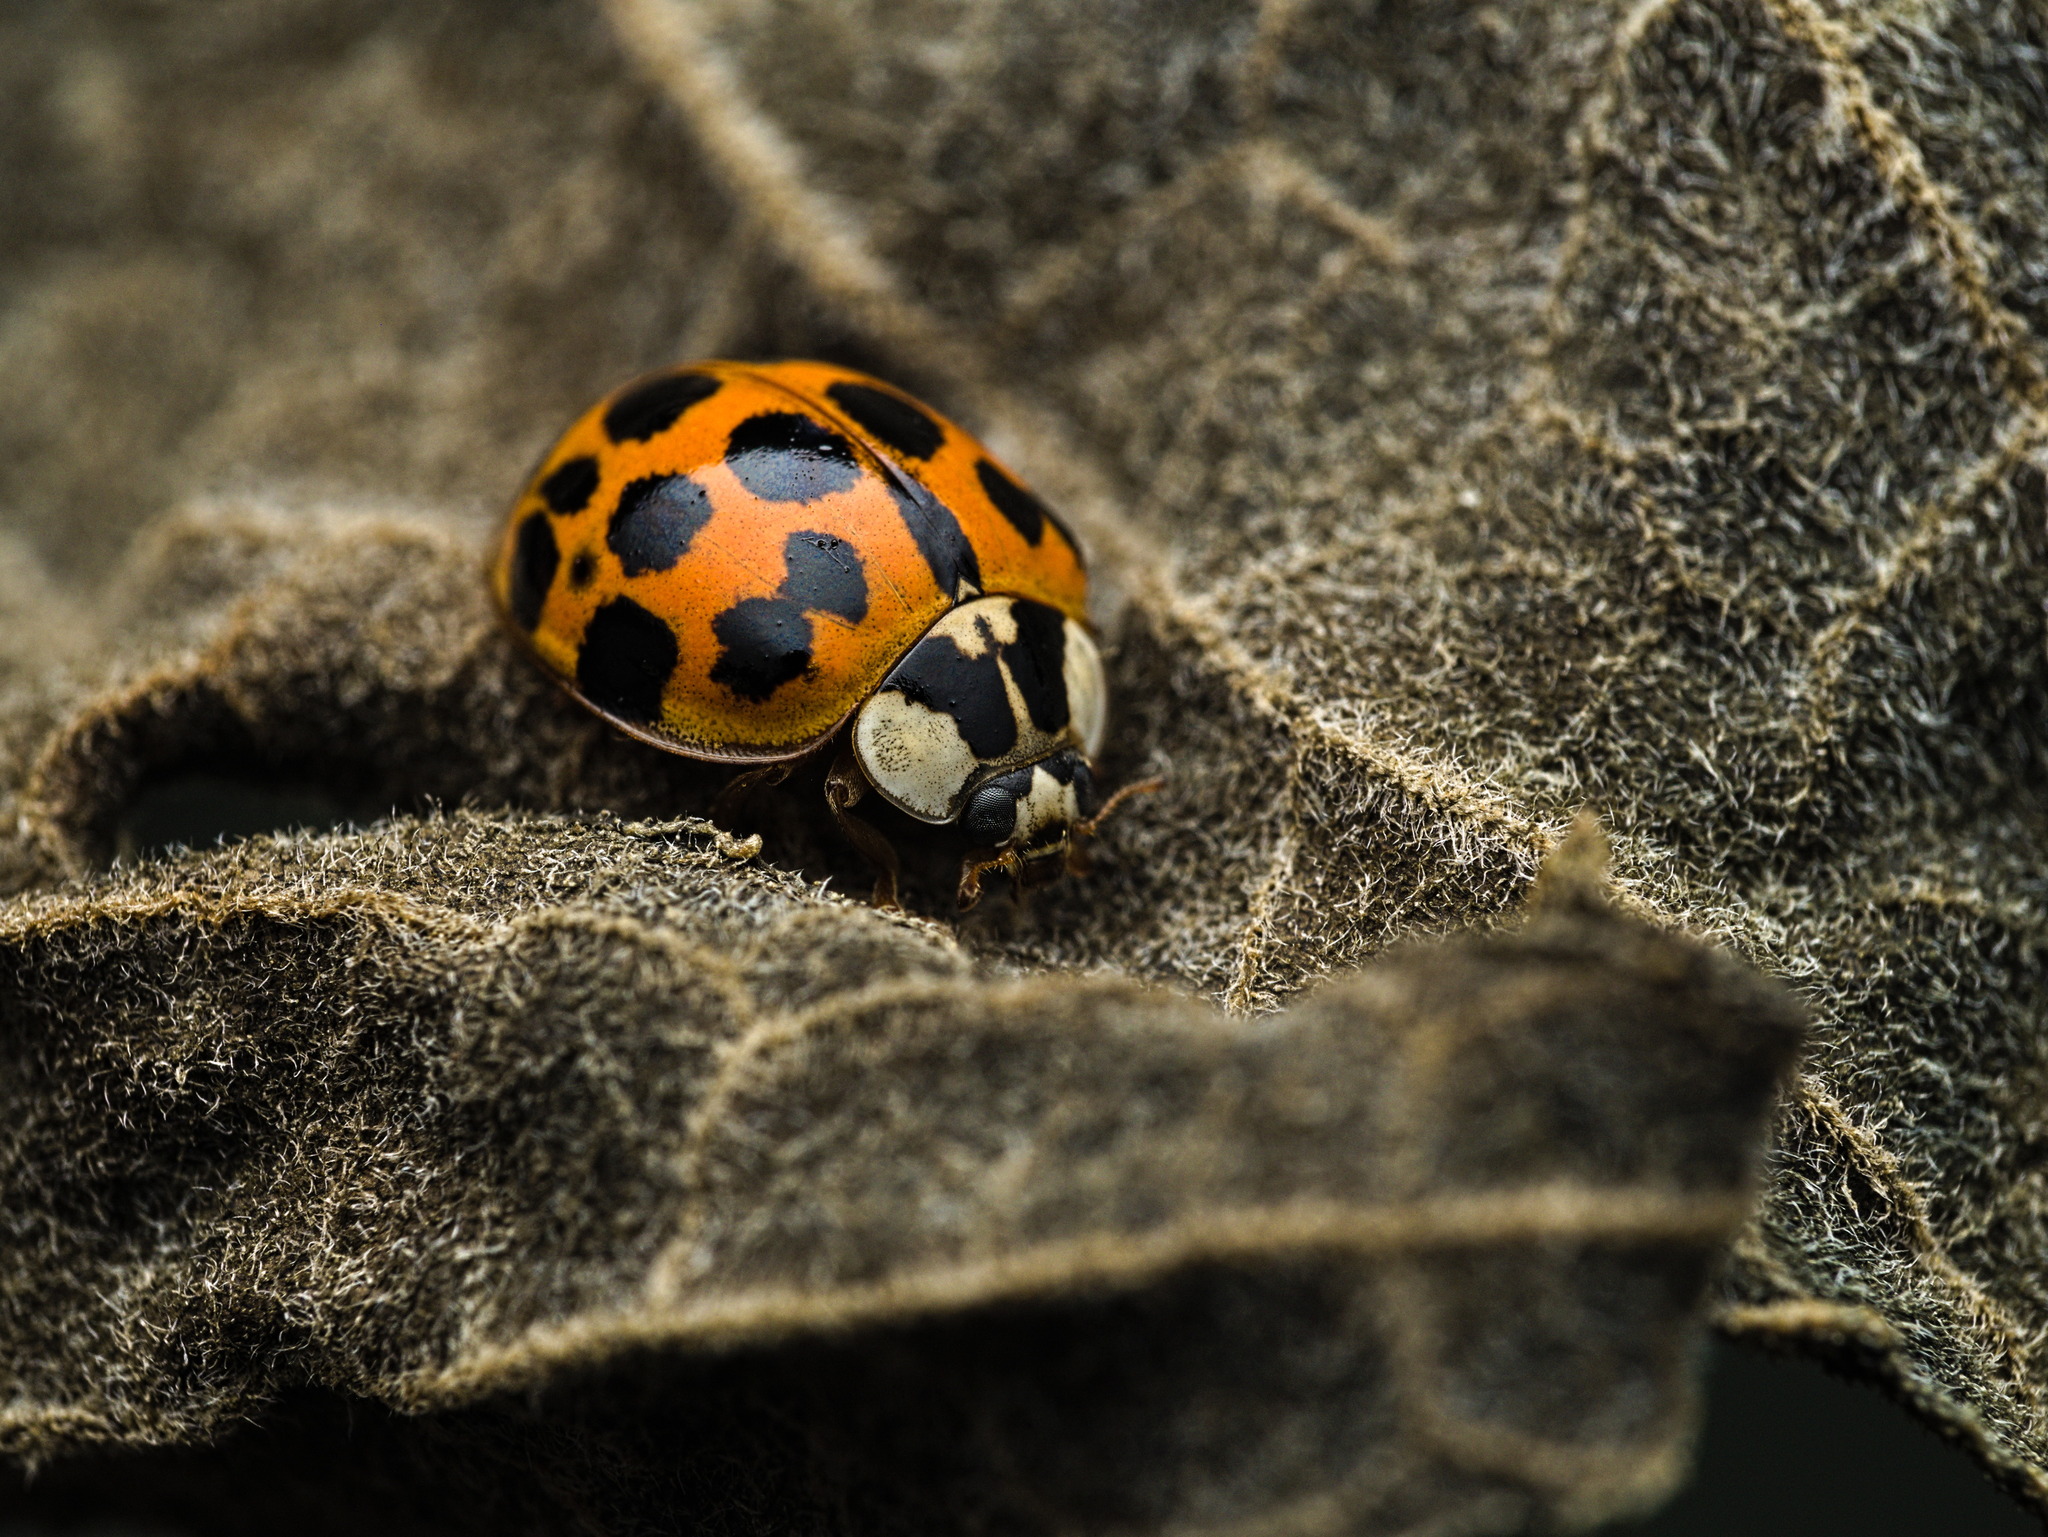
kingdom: Animalia
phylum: Arthropoda
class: Insecta
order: Coleoptera
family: Coccinellidae
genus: Harmonia
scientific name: Harmonia axyridis
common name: Harlequin ladybird
